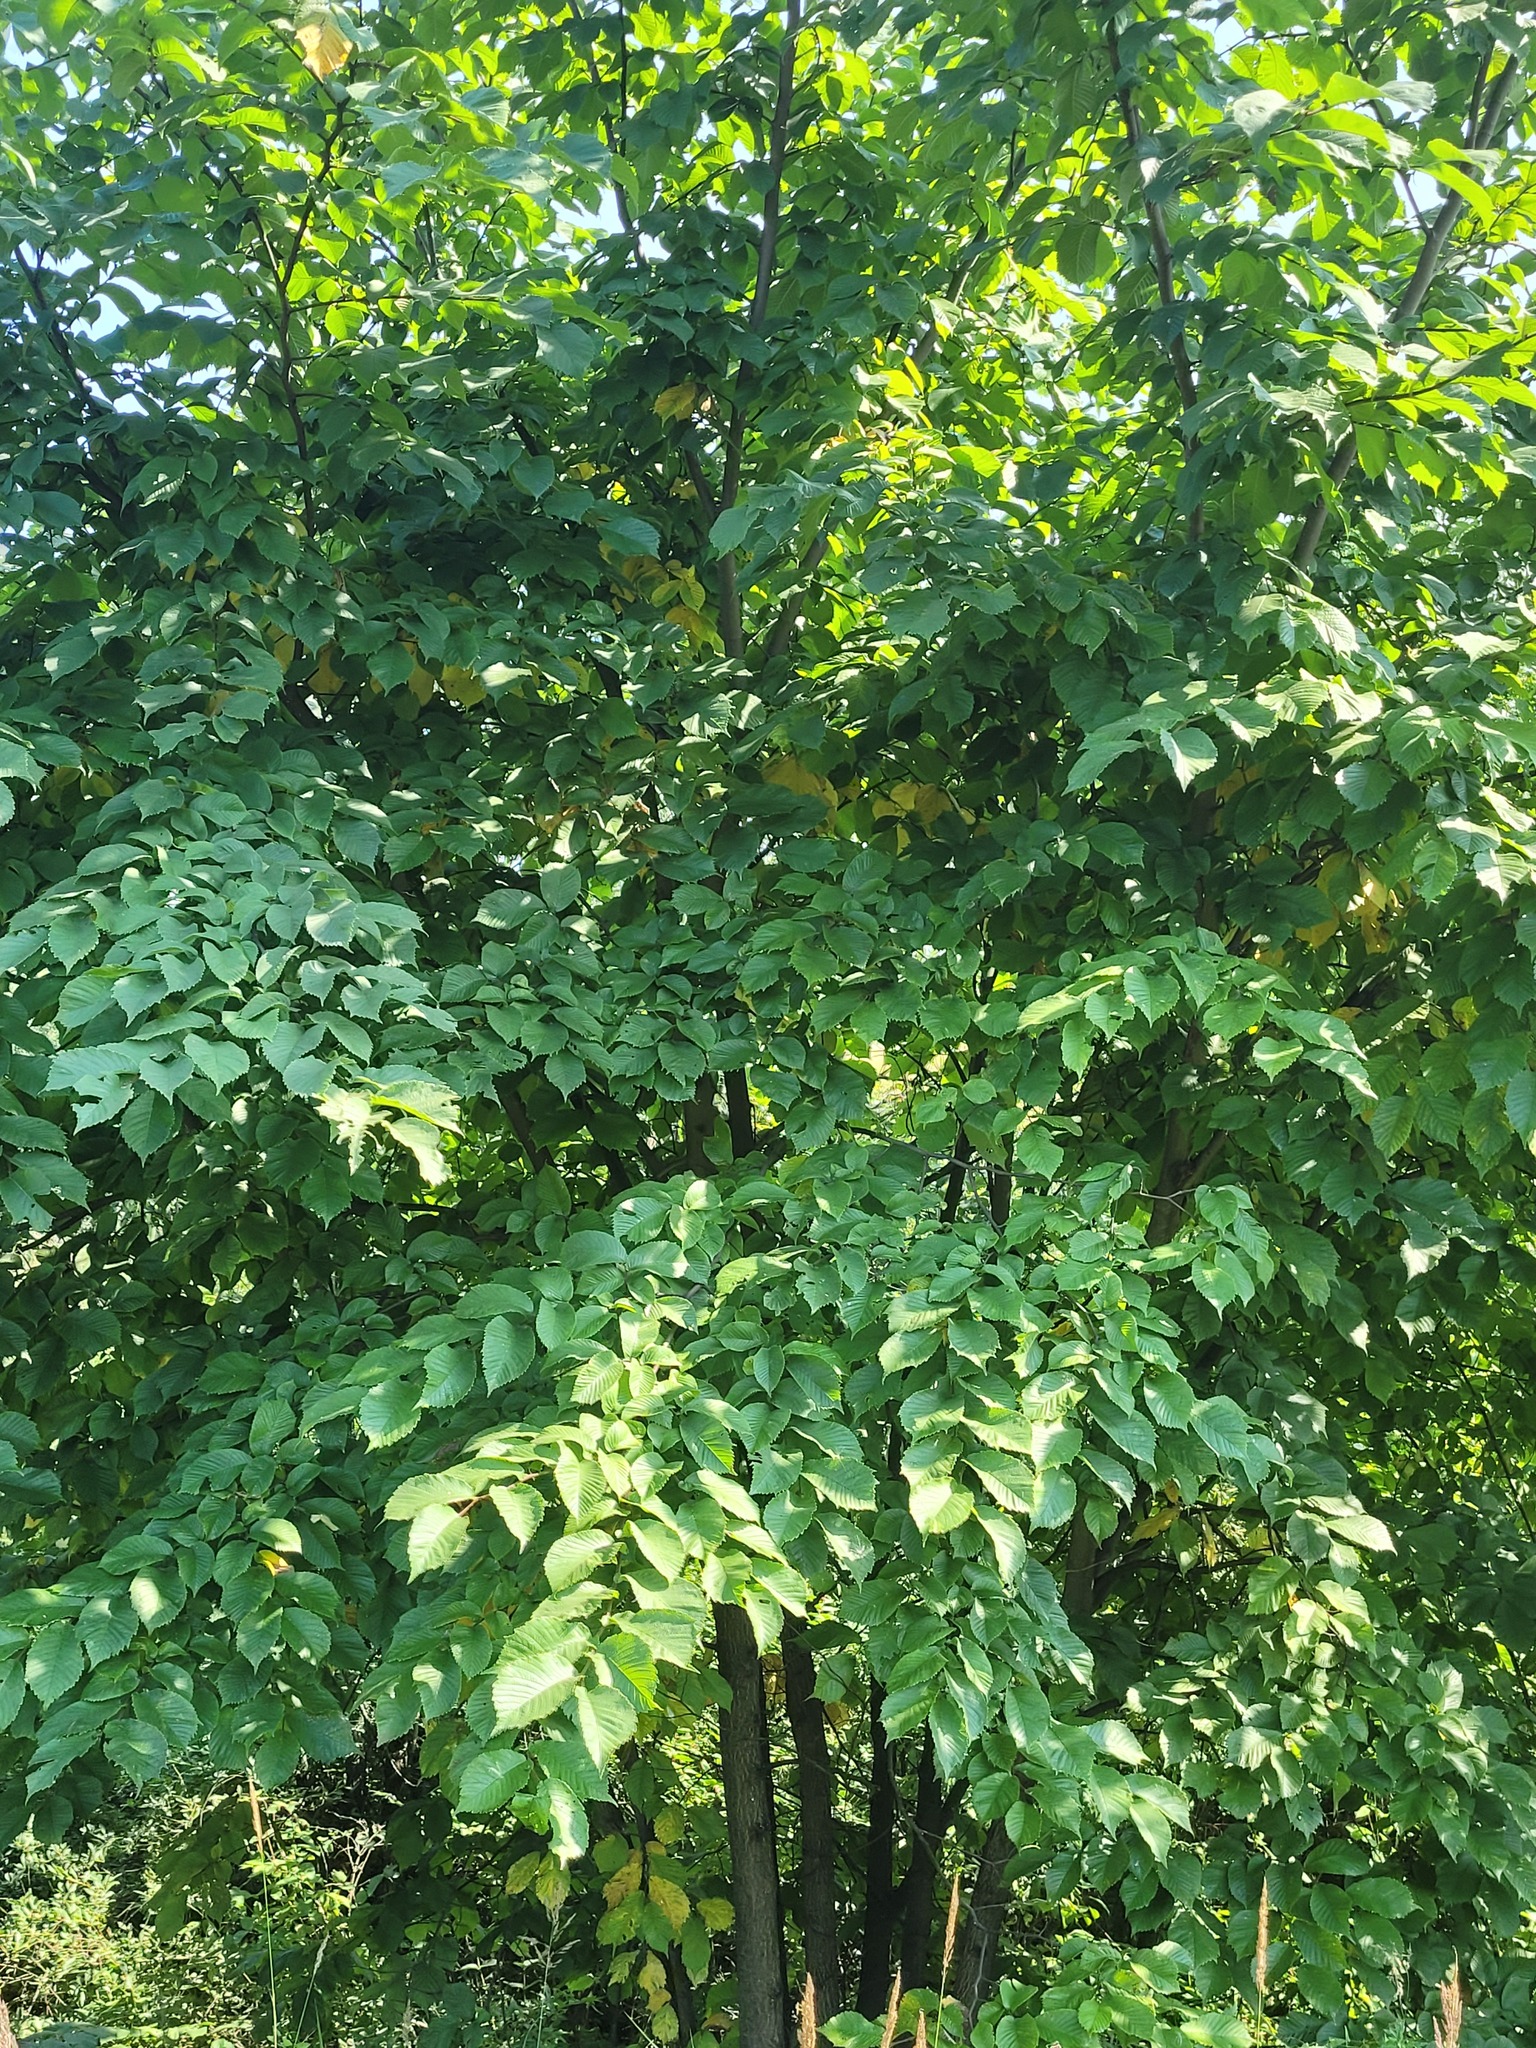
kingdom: Plantae
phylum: Tracheophyta
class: Magnoliopsida
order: Rosales
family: Ulmaceae
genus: Ulmus
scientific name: Ulmus glabra
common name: Wych elm
